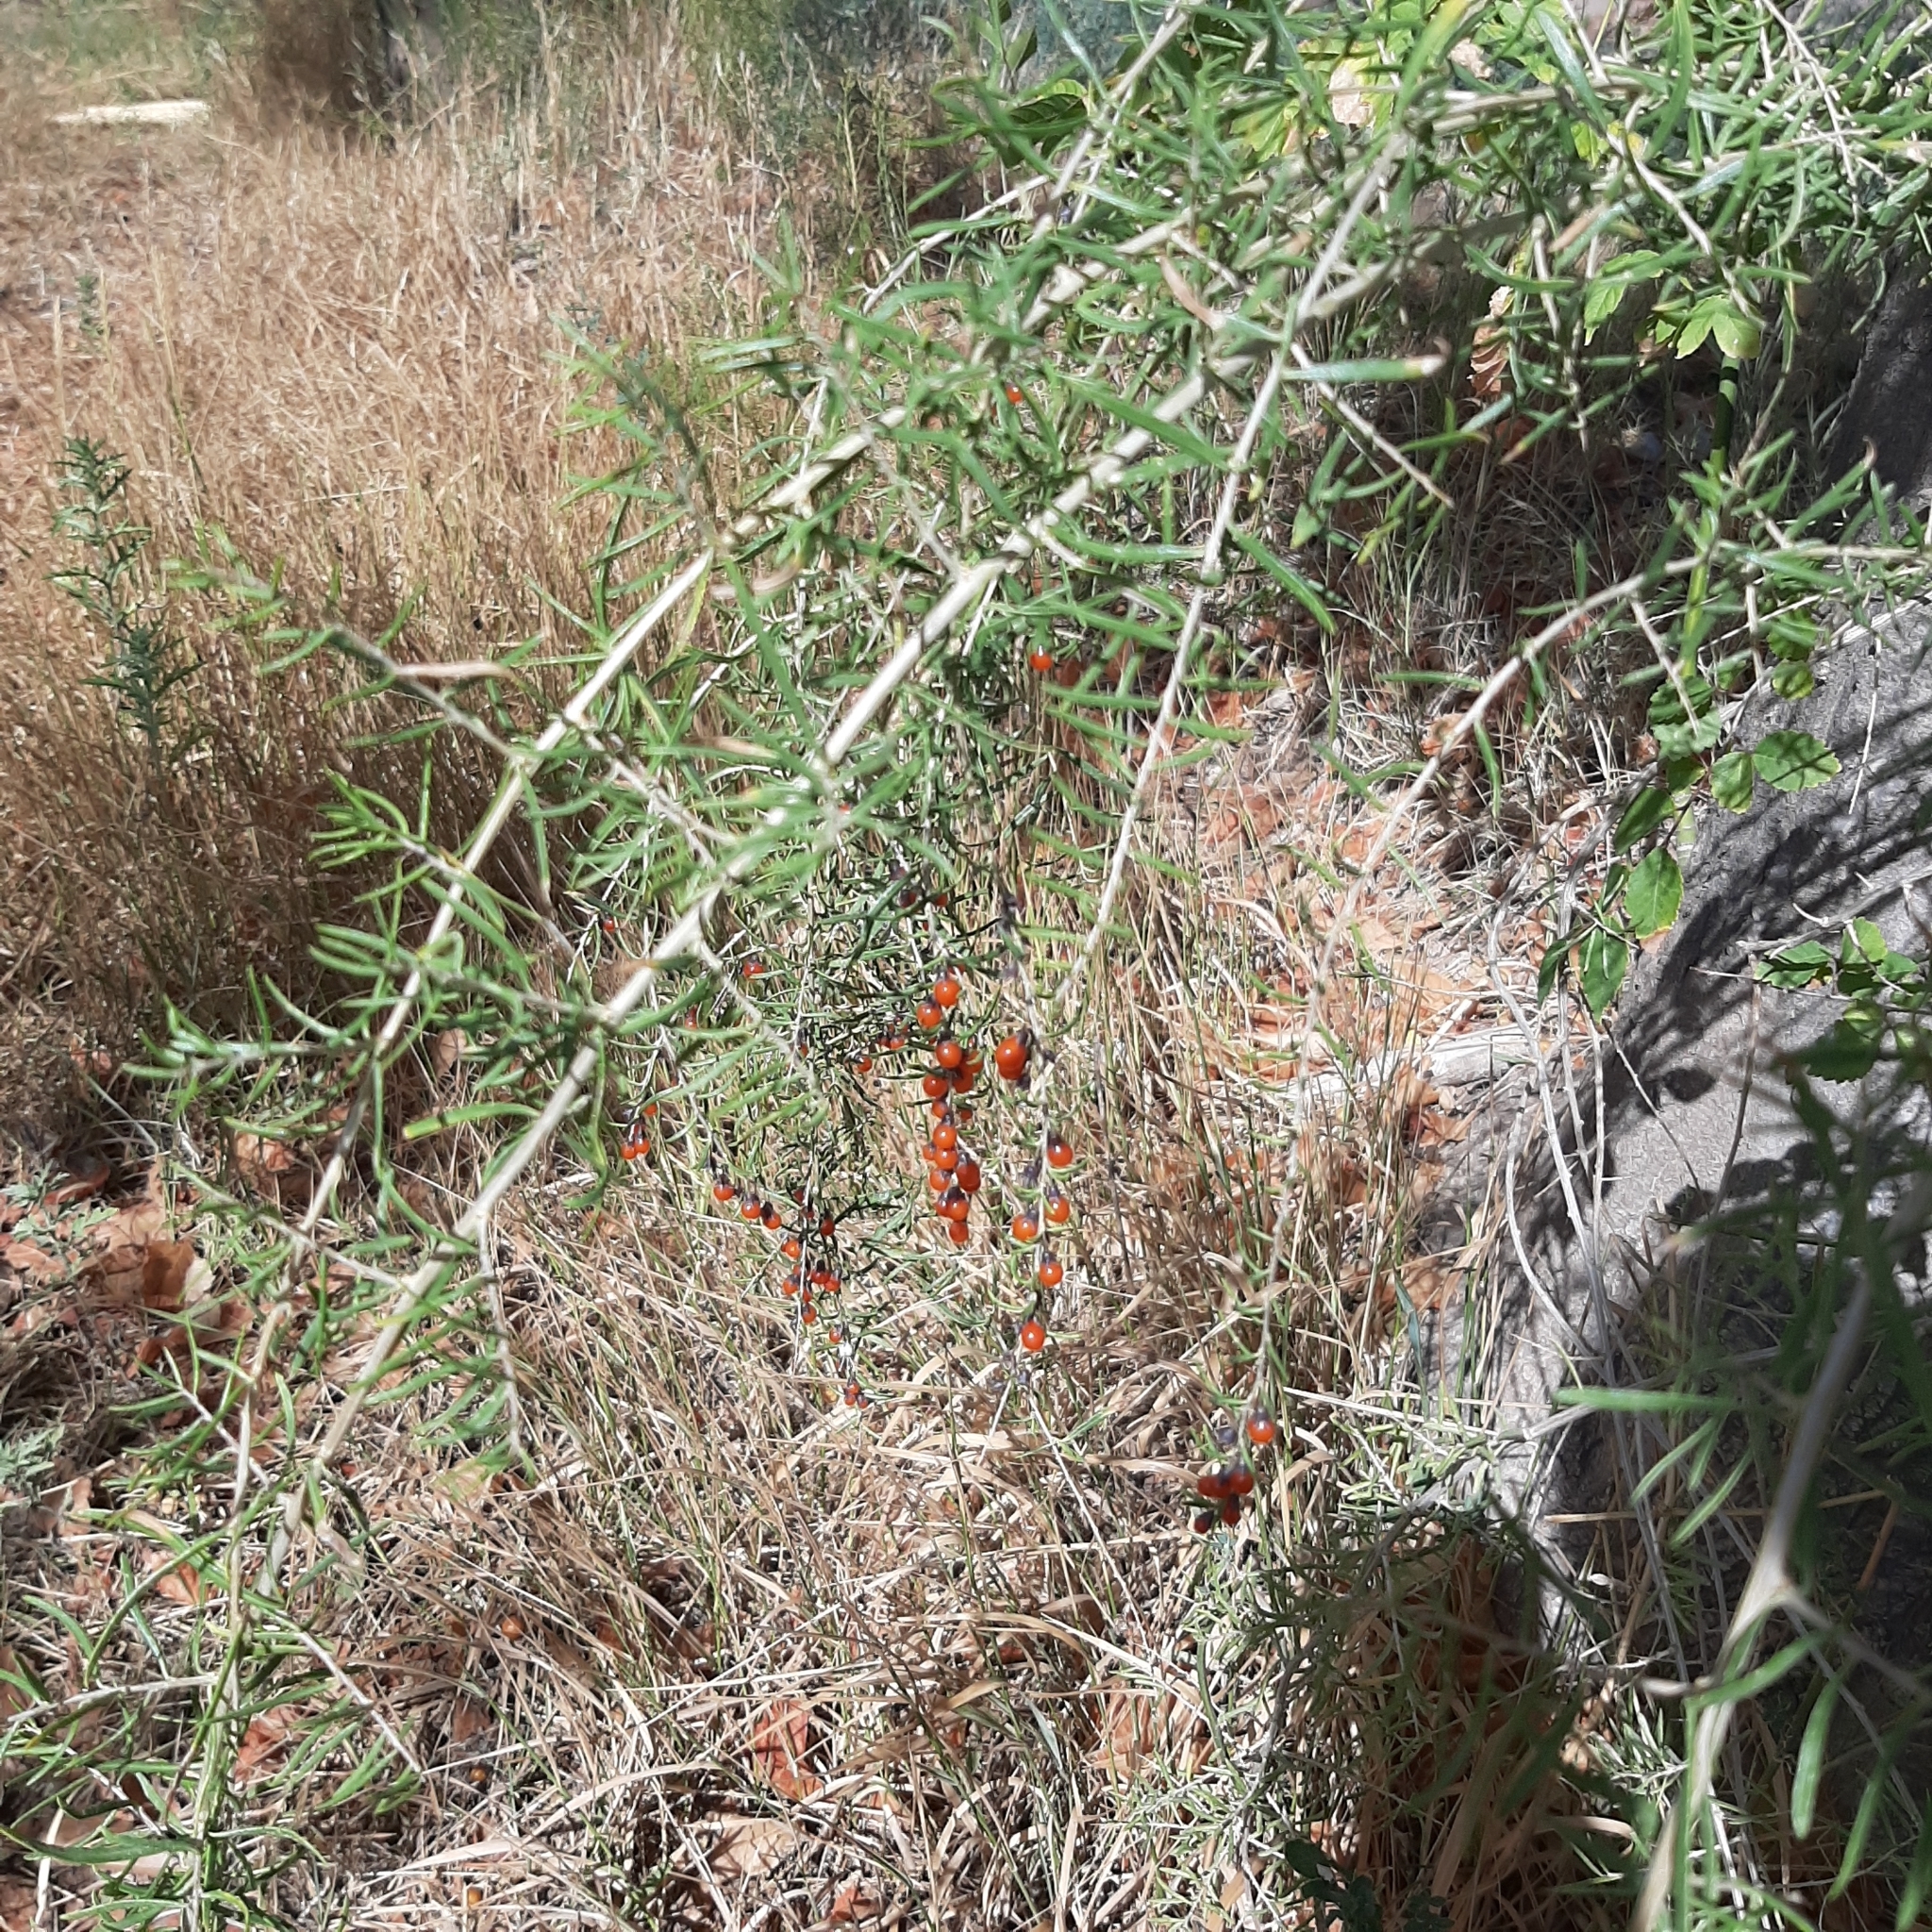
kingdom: Plantae
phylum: Tracheophyta
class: Magnoliopsida
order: Solanales
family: Solanaceae
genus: Lycium
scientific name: Lycium chilense
